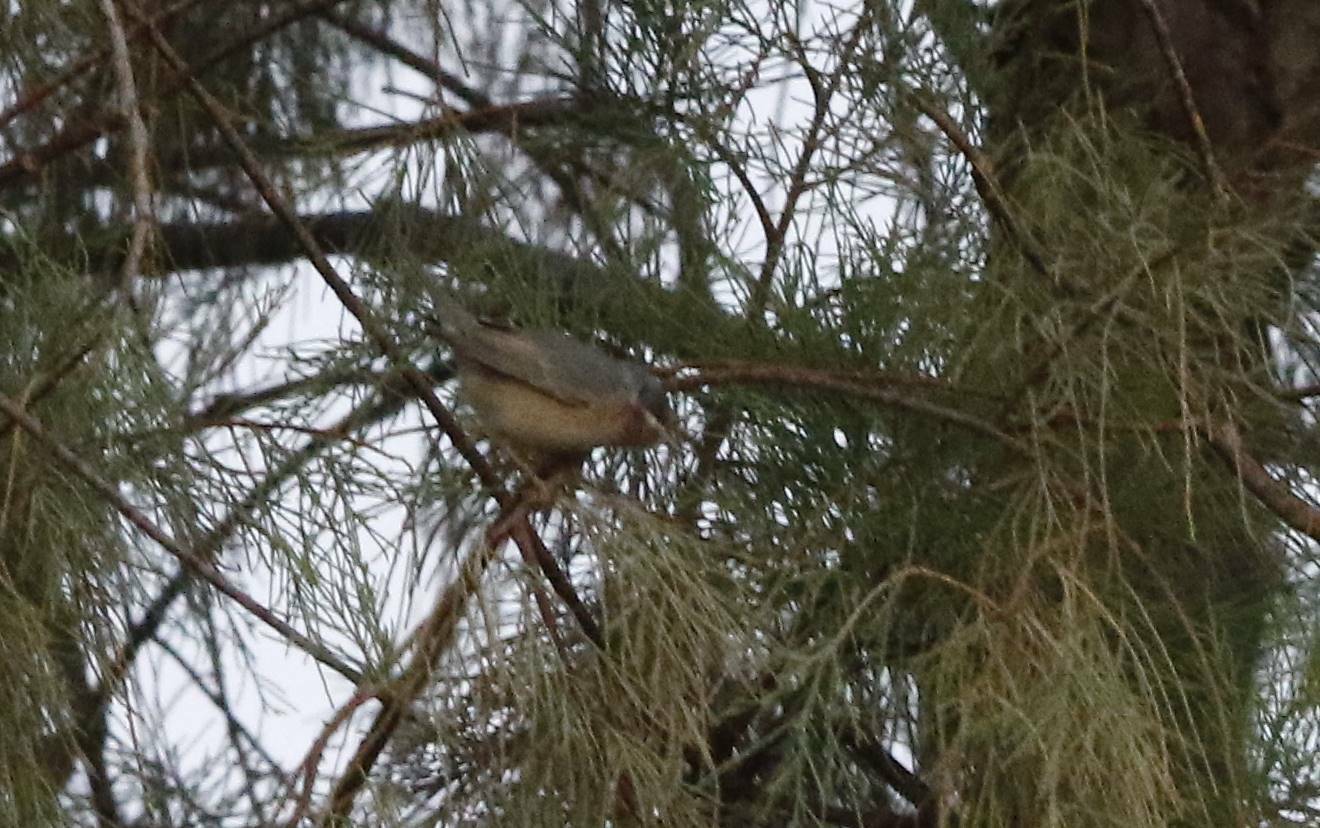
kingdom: Animalia
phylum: Chordata
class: Aves
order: Passeriformes
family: Sylviidae
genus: Curruca
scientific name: Curruca cantillans
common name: Subalpine warbler
